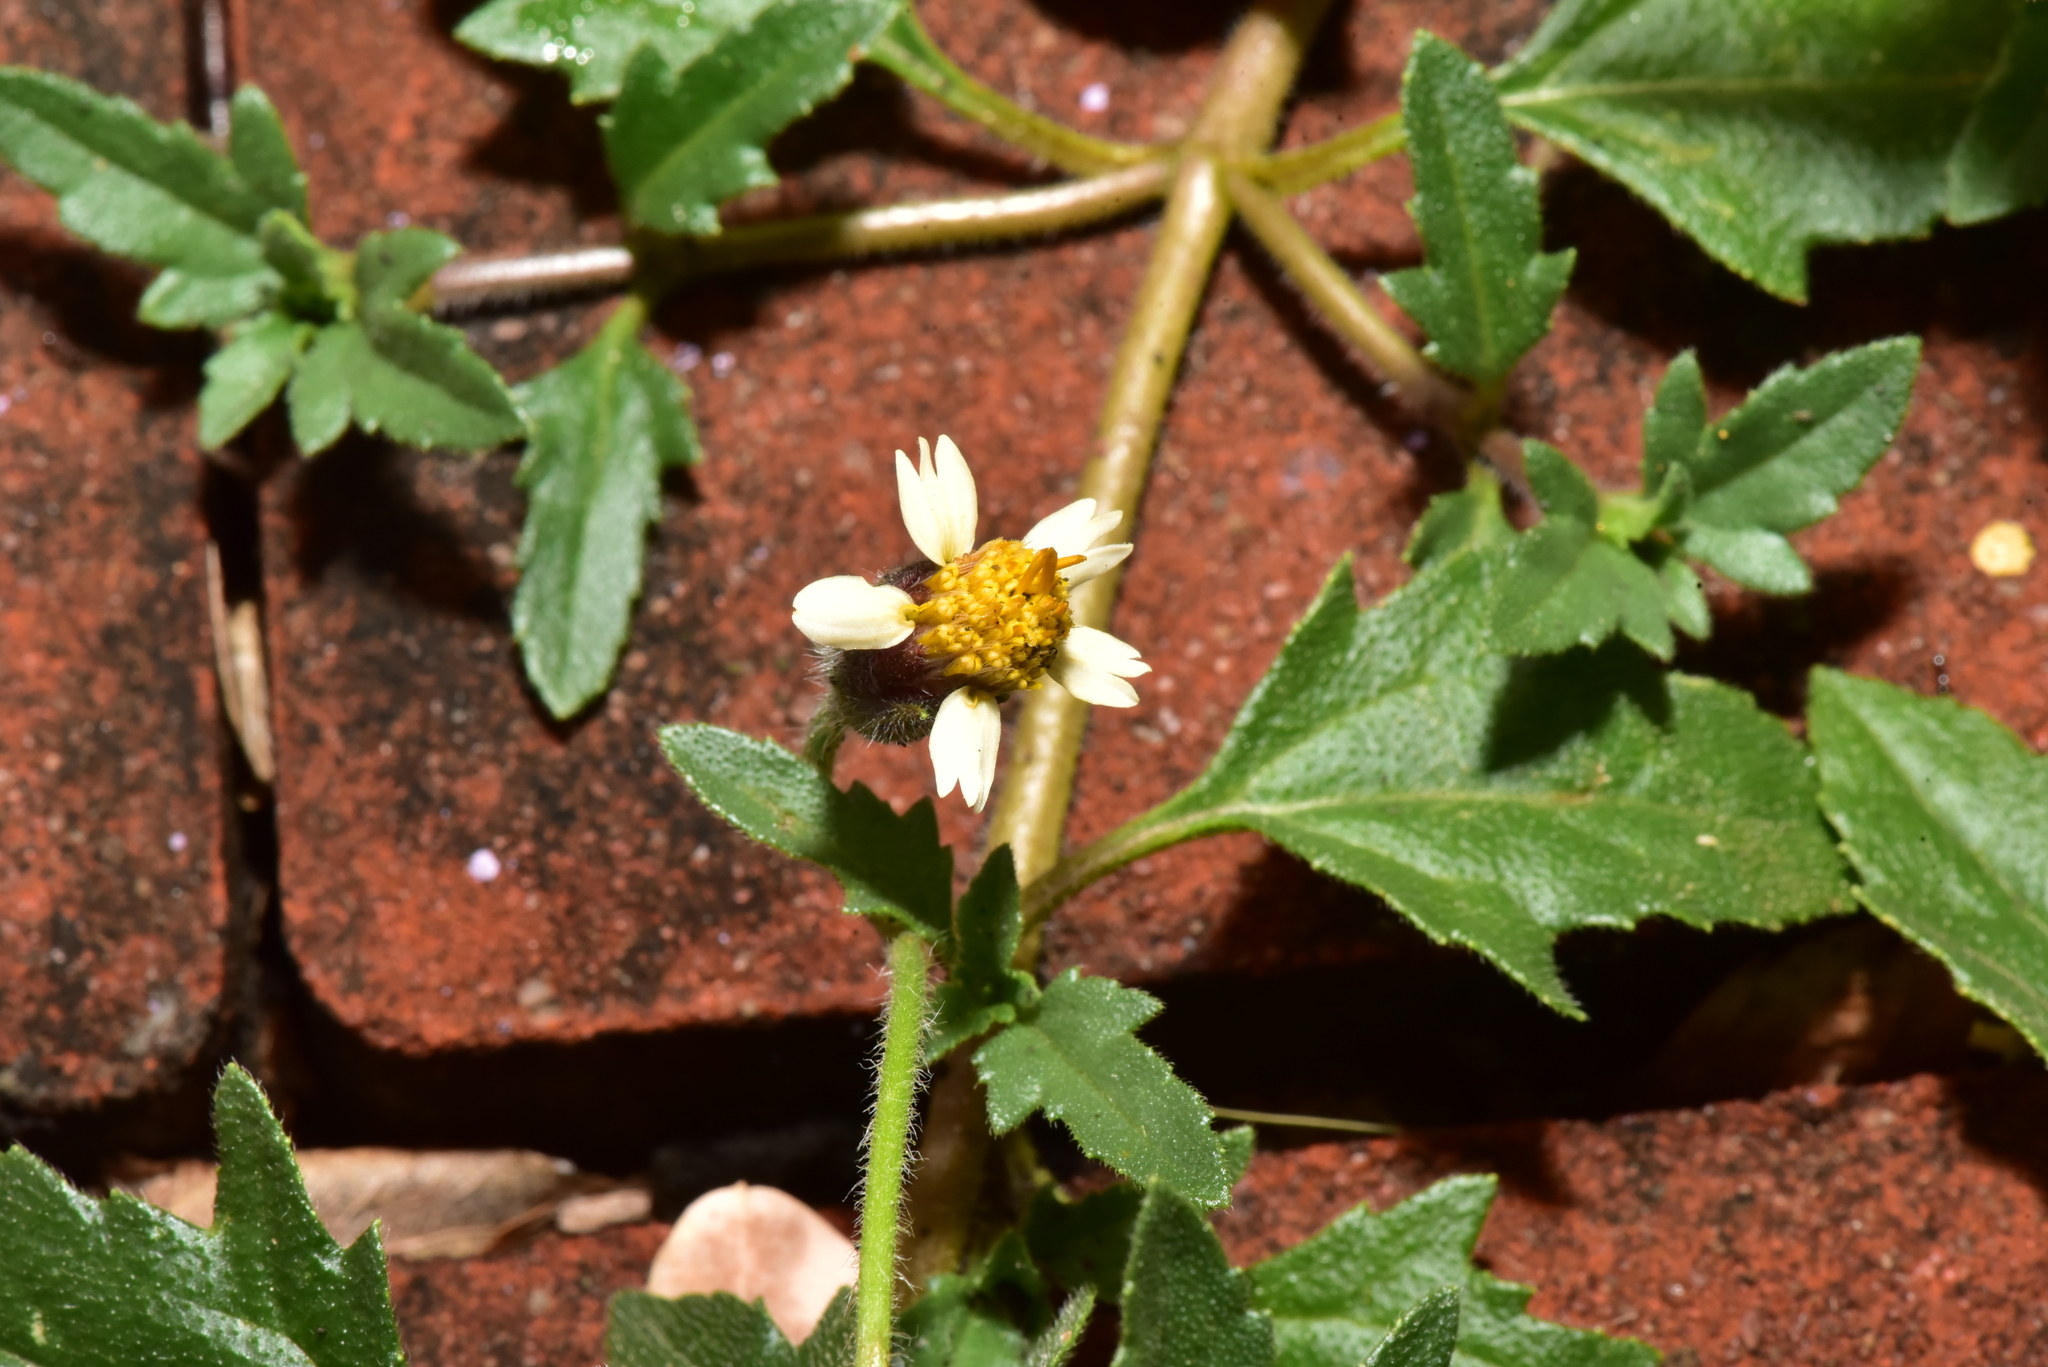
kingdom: Plantae
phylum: Tracheophyta
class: Magnoliopsida
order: Asterales
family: Asteraceae
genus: Tridax
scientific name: Tridax procumbens
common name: Coatbuttons
